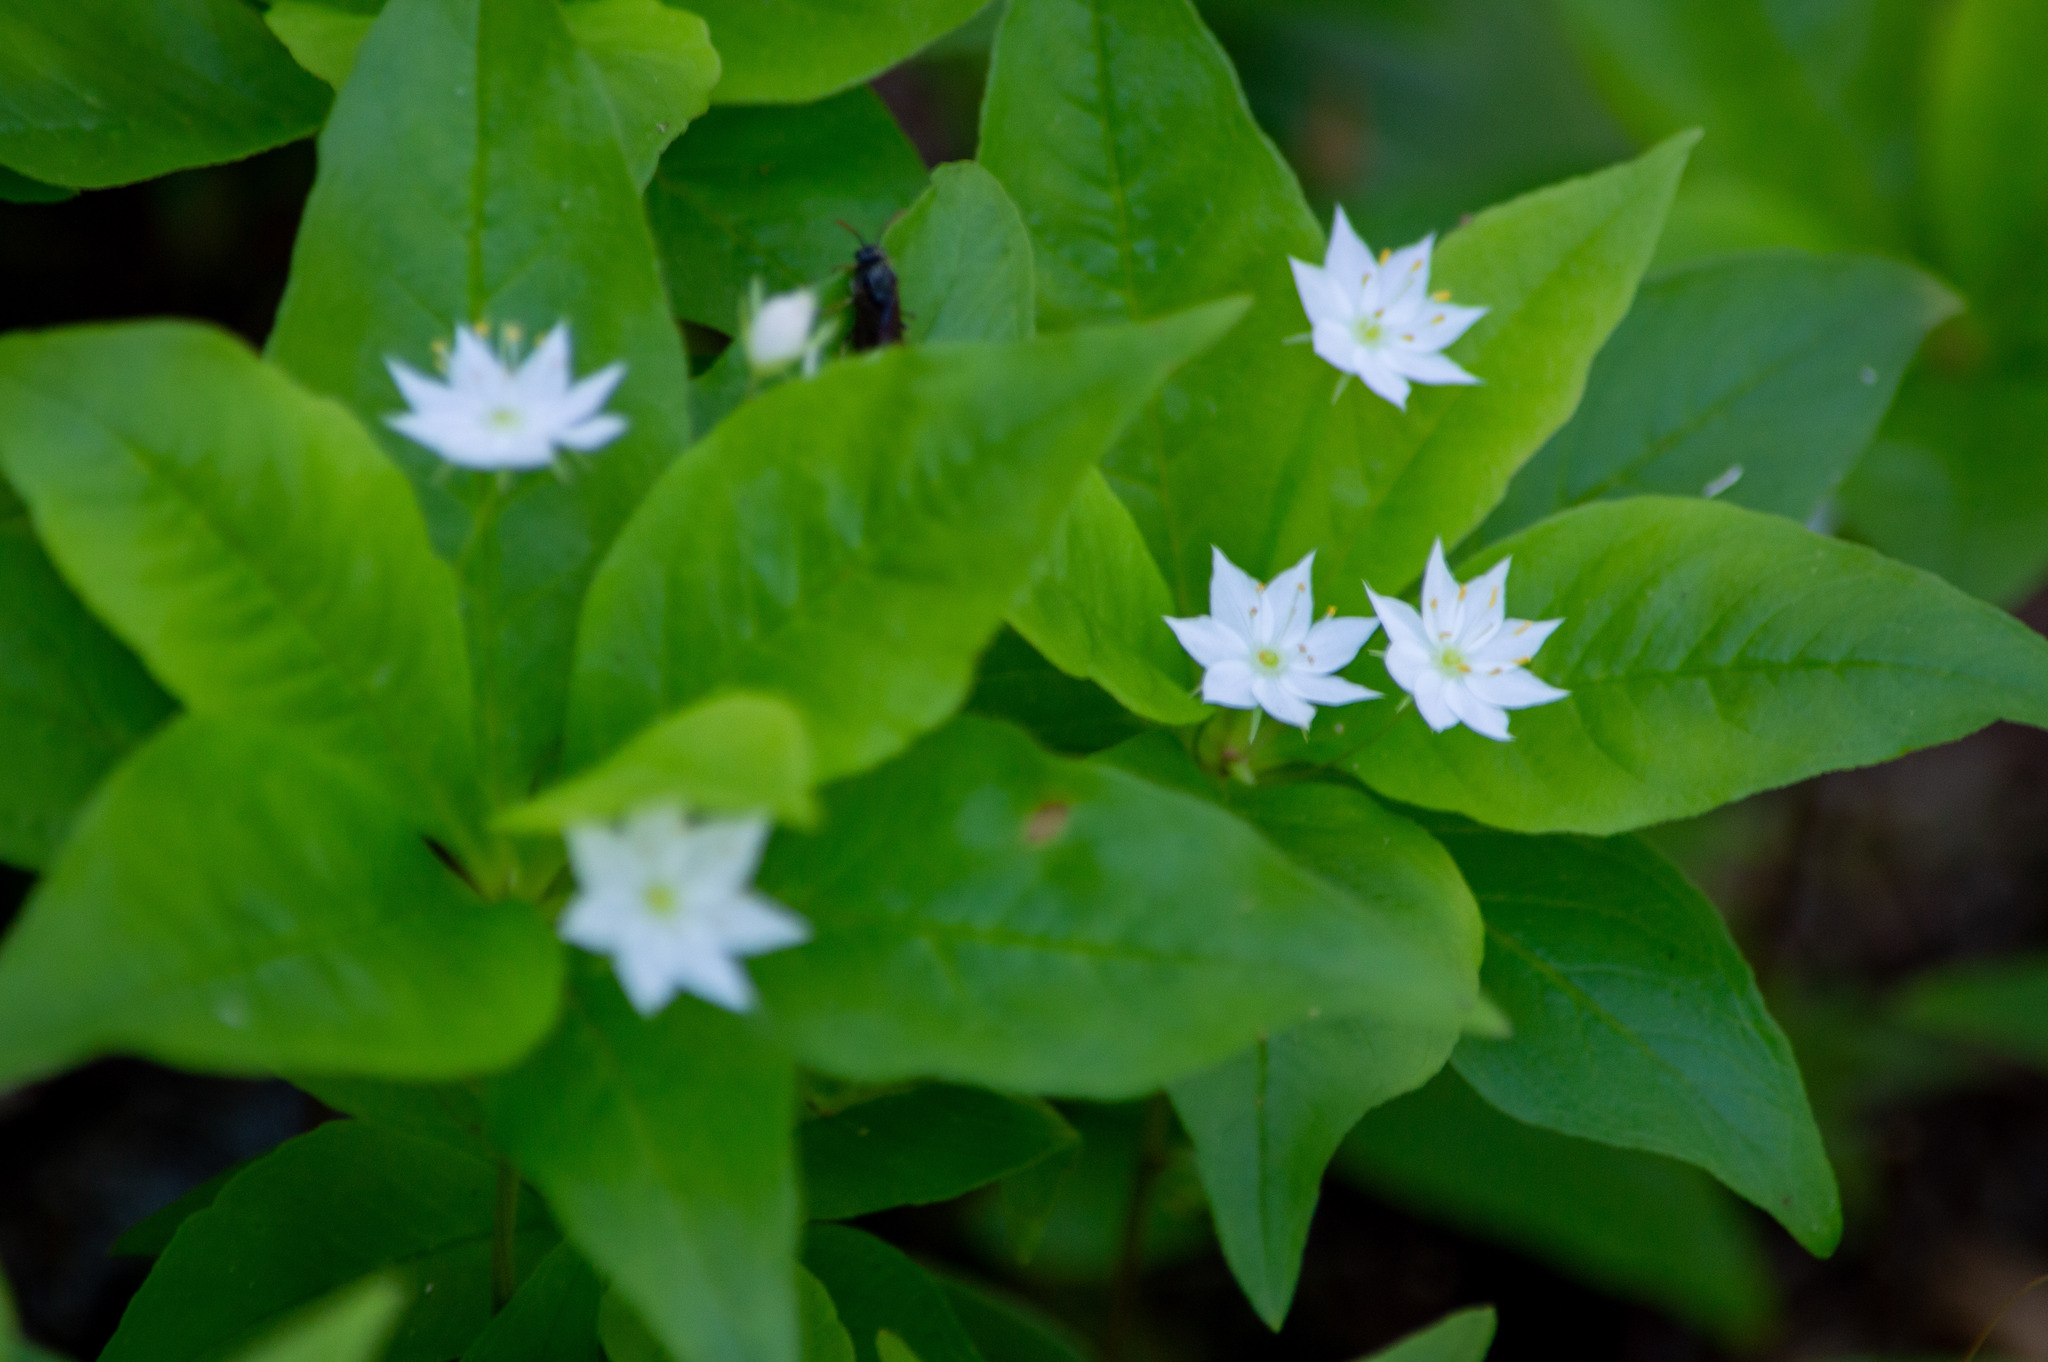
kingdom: Plantae
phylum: Tracheophyta
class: Magnoliopsida
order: Ericales
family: Primulaceae
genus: Lysimachia
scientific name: Lysimachia borealis
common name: American starflower
